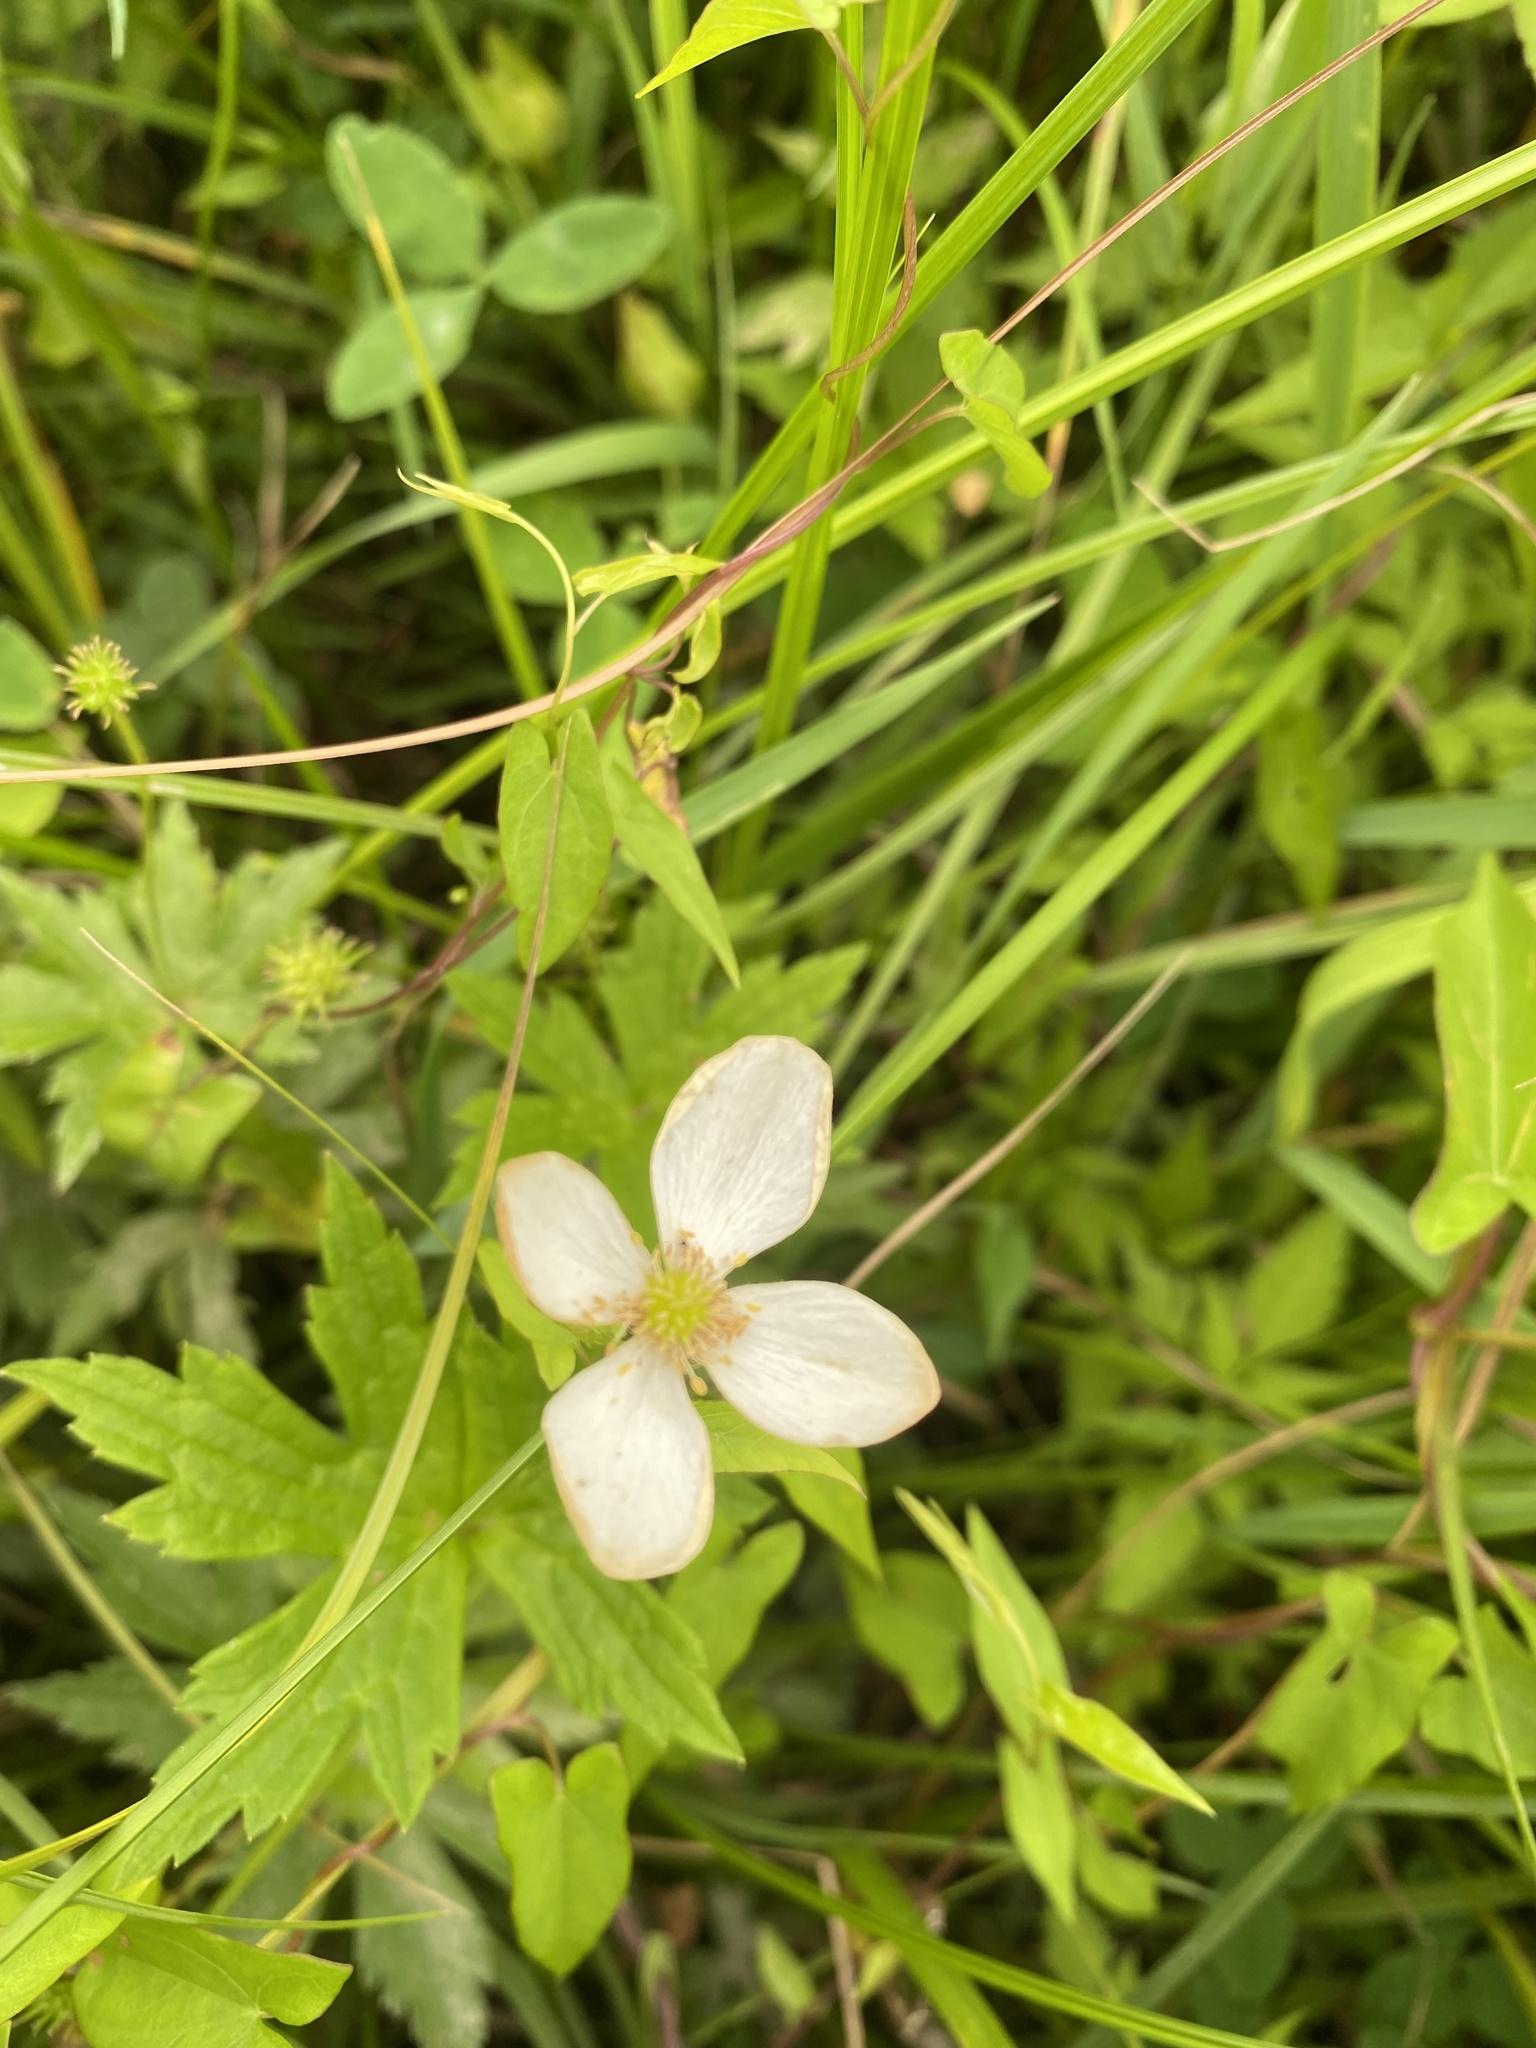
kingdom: Plantae
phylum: Tracheophyta
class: Magnoliopsida
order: Ranunculales
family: Ranunculaceae
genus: Anemonastrum
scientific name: Anemonastrum canadense
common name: Canada anemone
